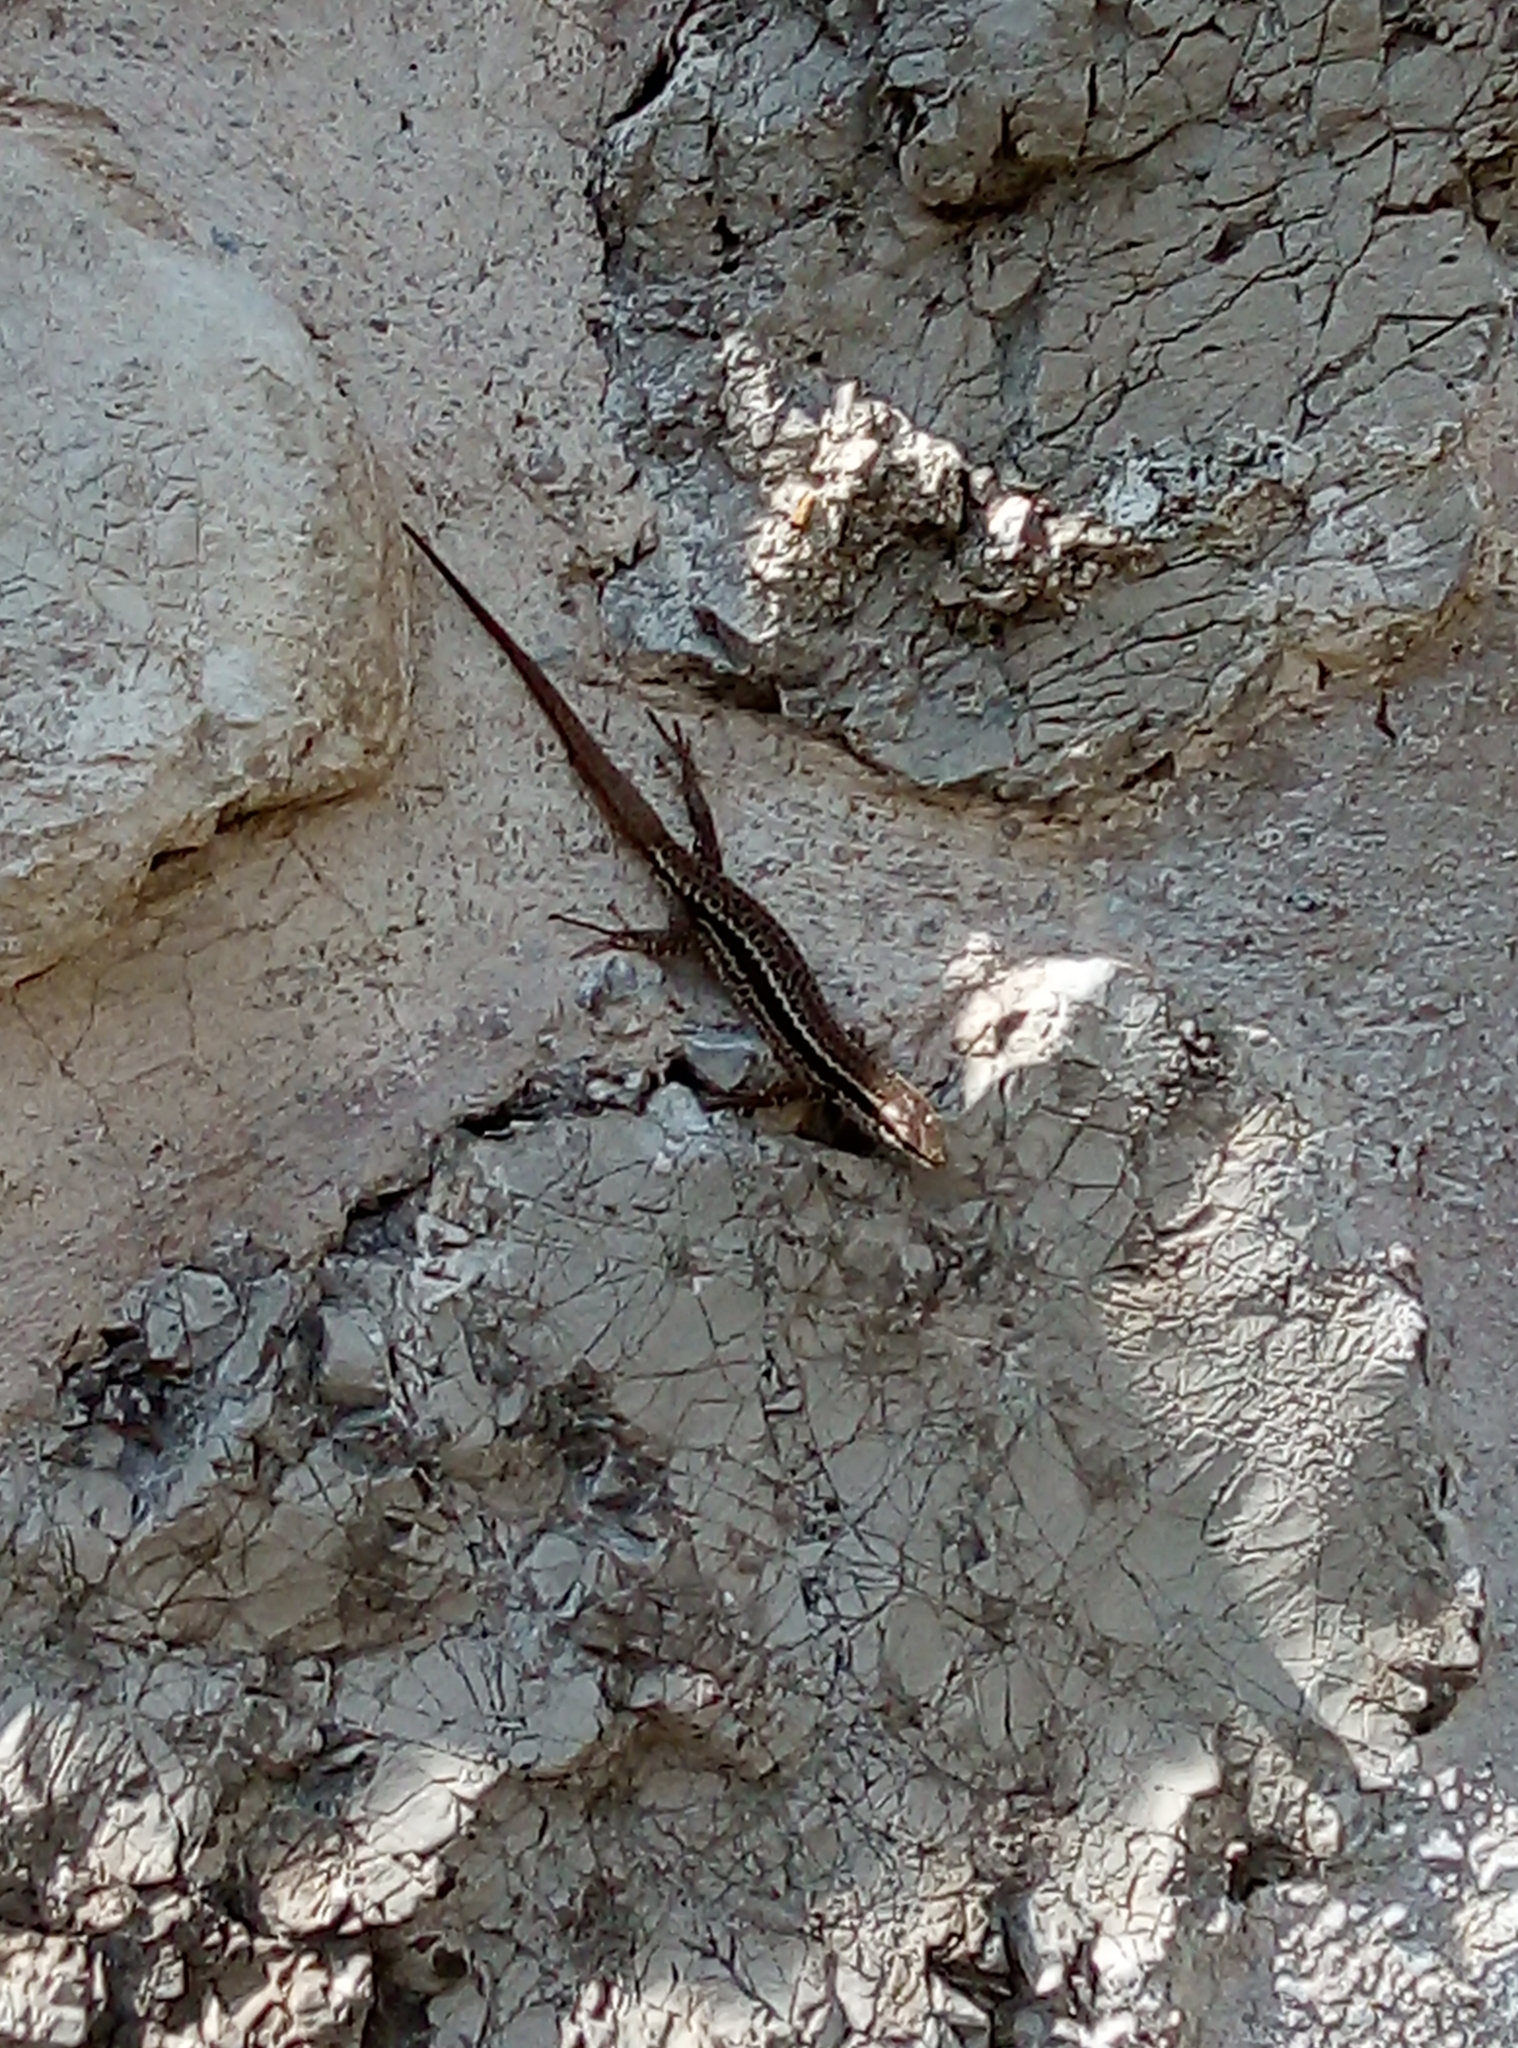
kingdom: Animalia
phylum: Chordata
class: Squamata
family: Lacertidae
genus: Podarcis
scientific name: Podarcis muralis
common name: Common wall lizard
